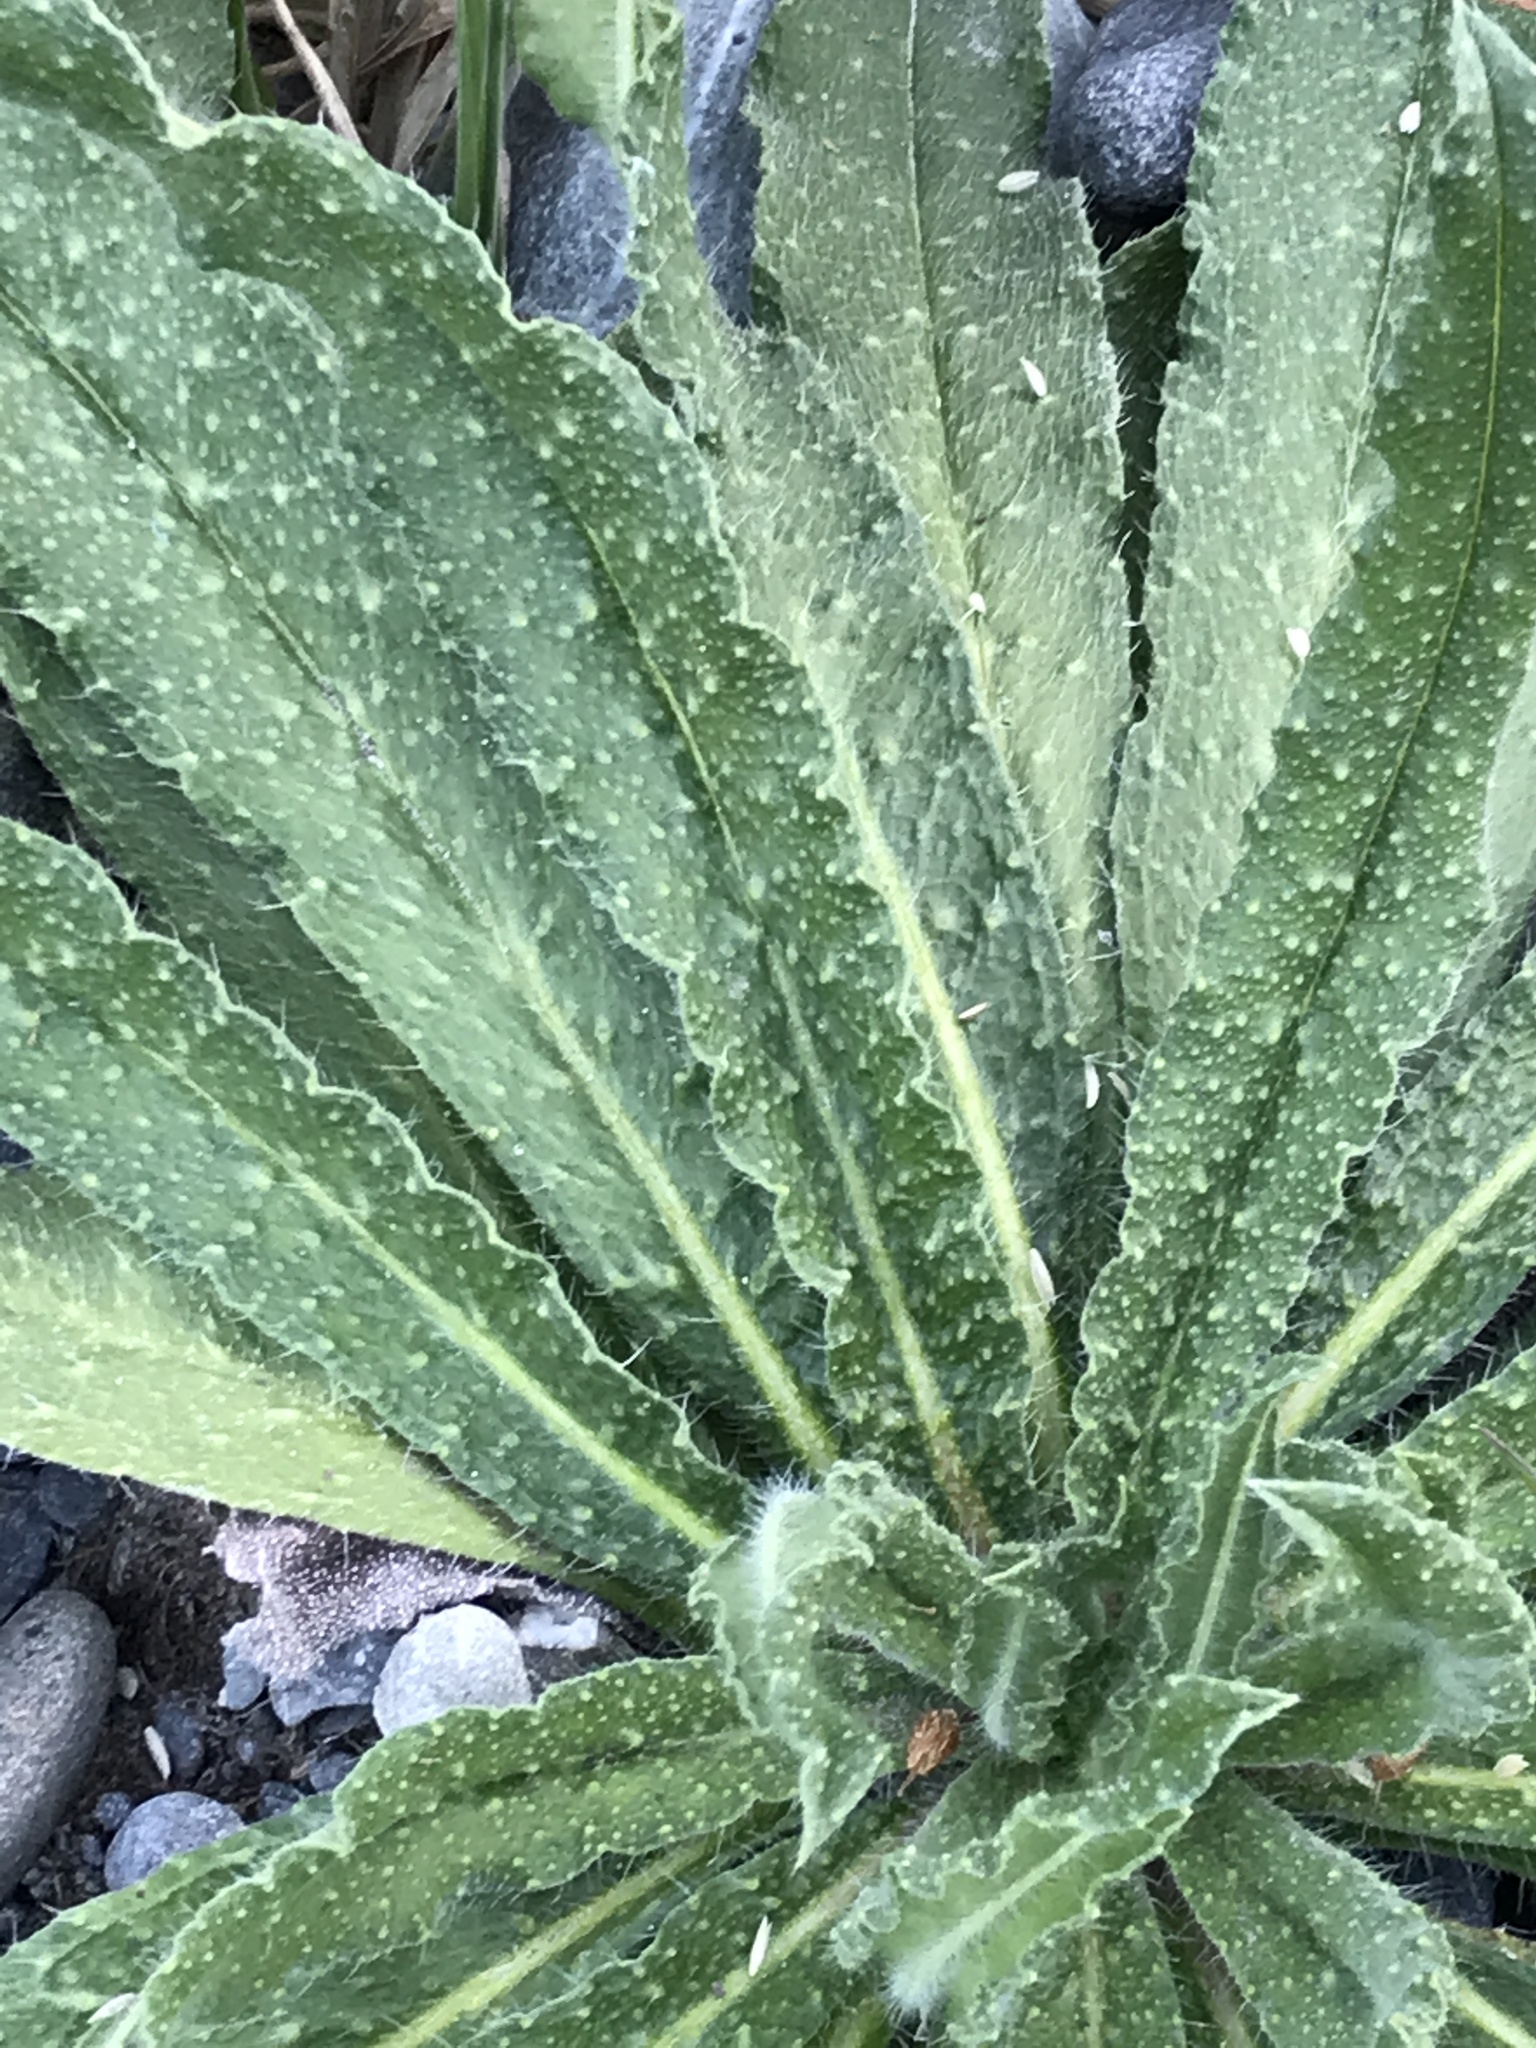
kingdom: Plantae
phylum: Tracheophyta
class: Magnoliopsida
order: Boraginales
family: Boraginaceae
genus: Echium
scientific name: Echium vulgare
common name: Common viper's bugloss
